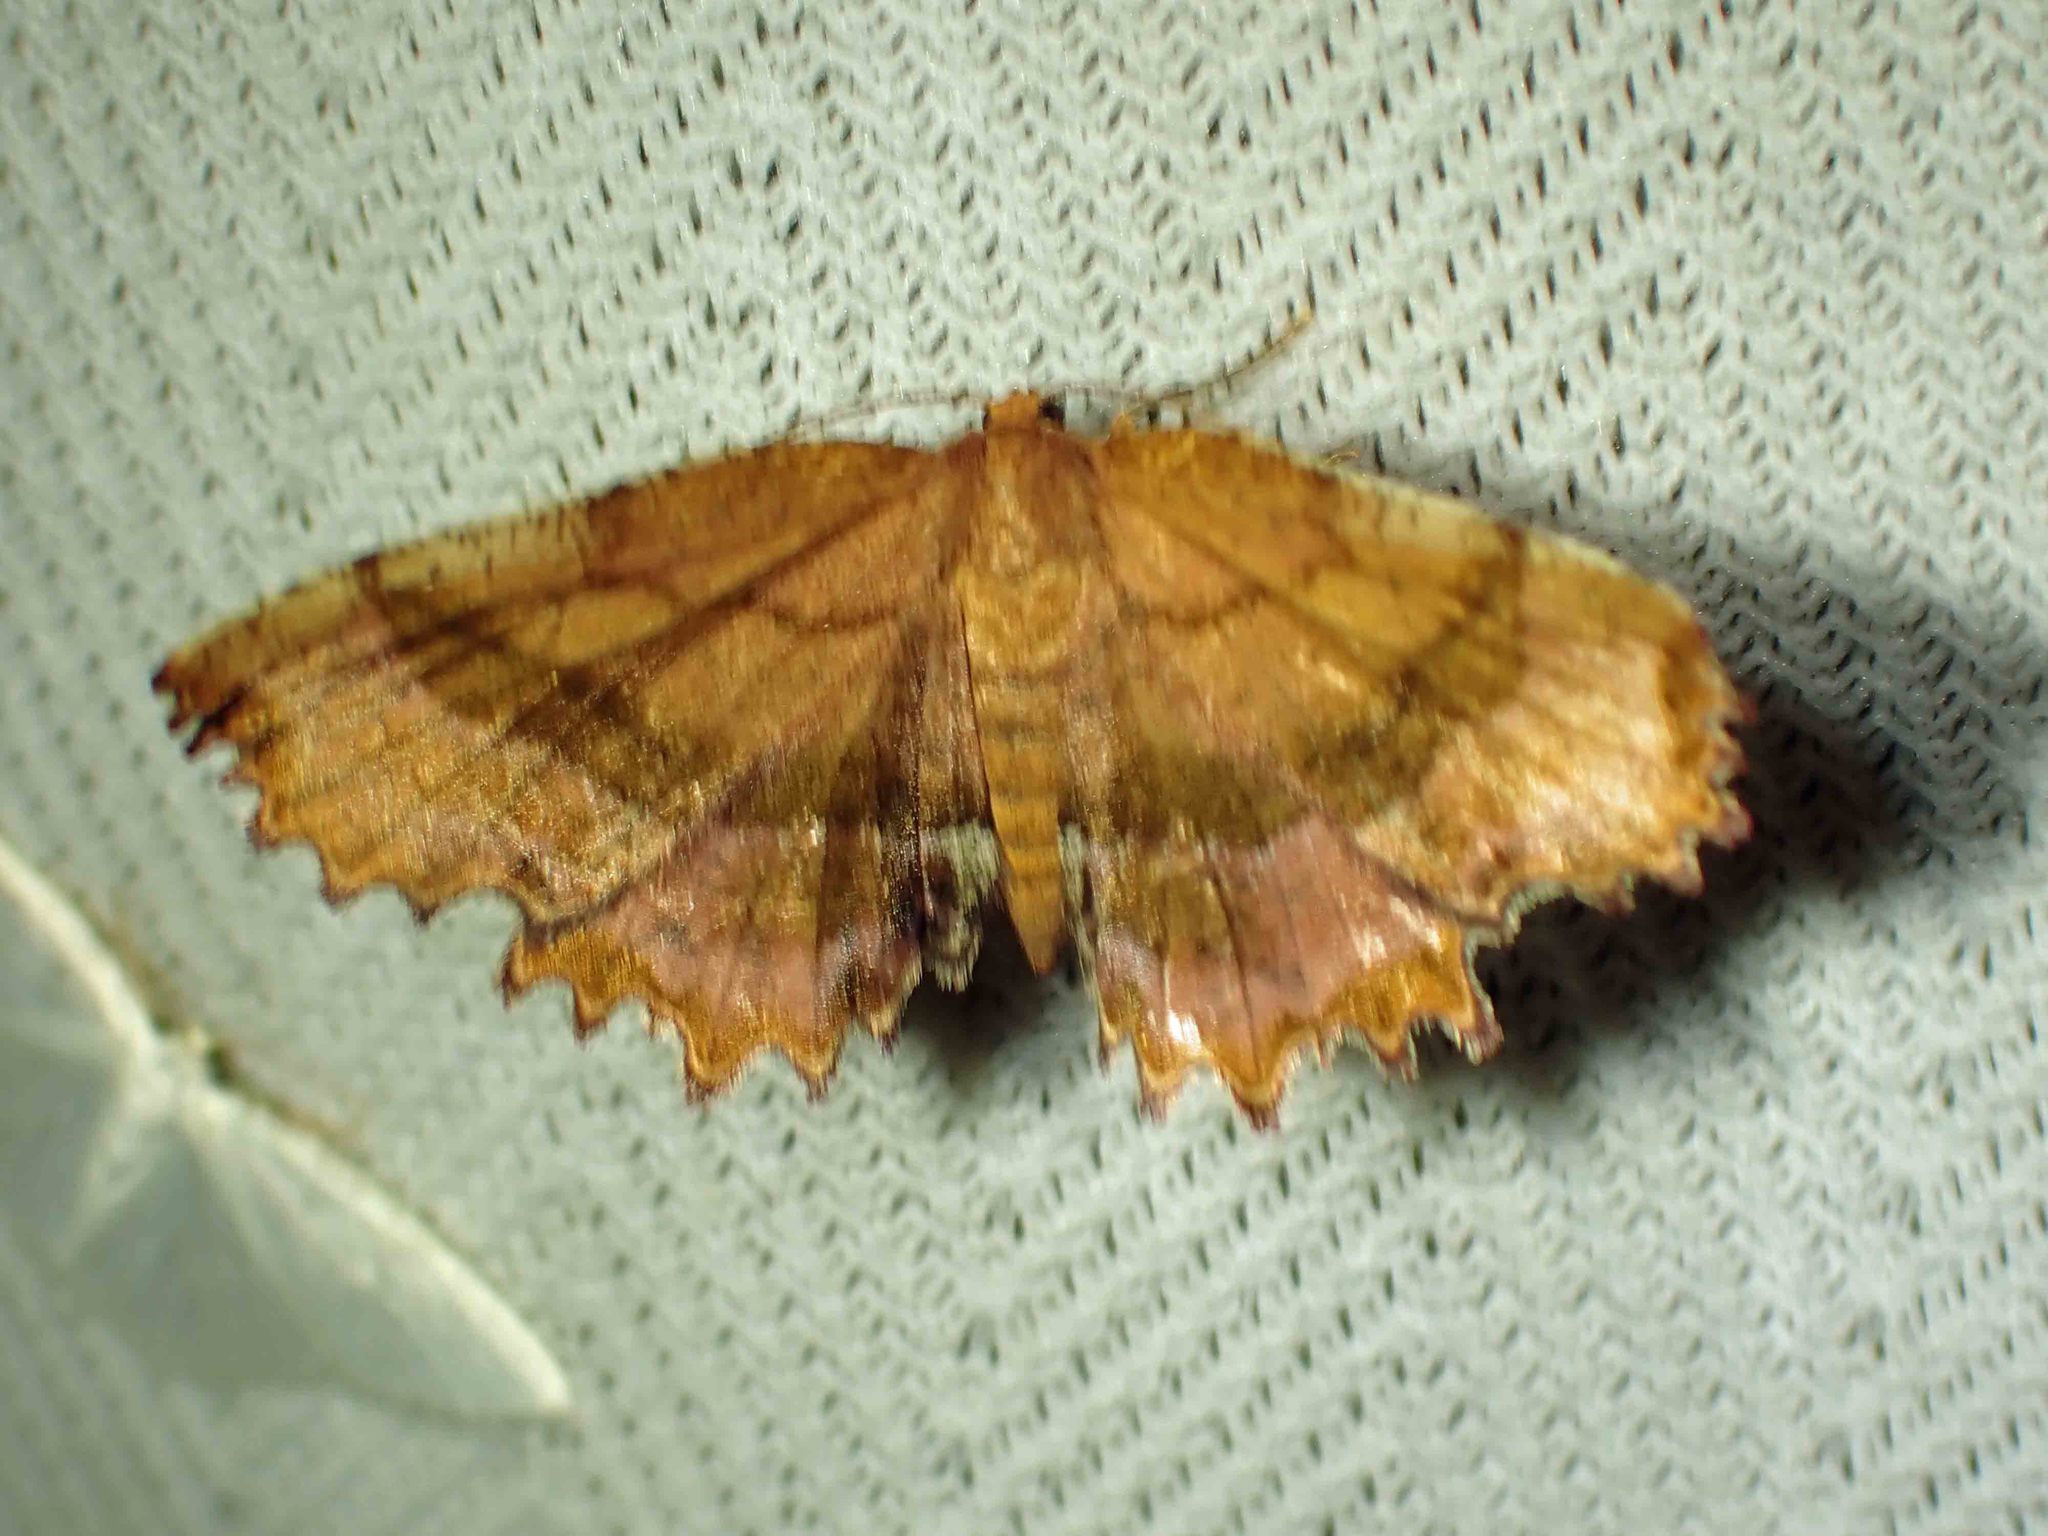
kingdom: Animalia
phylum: Arthropoda
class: Insecta
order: Lepidoptera
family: Geometridae
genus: Cepphis
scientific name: Cepphis armataria
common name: Scallop moth
